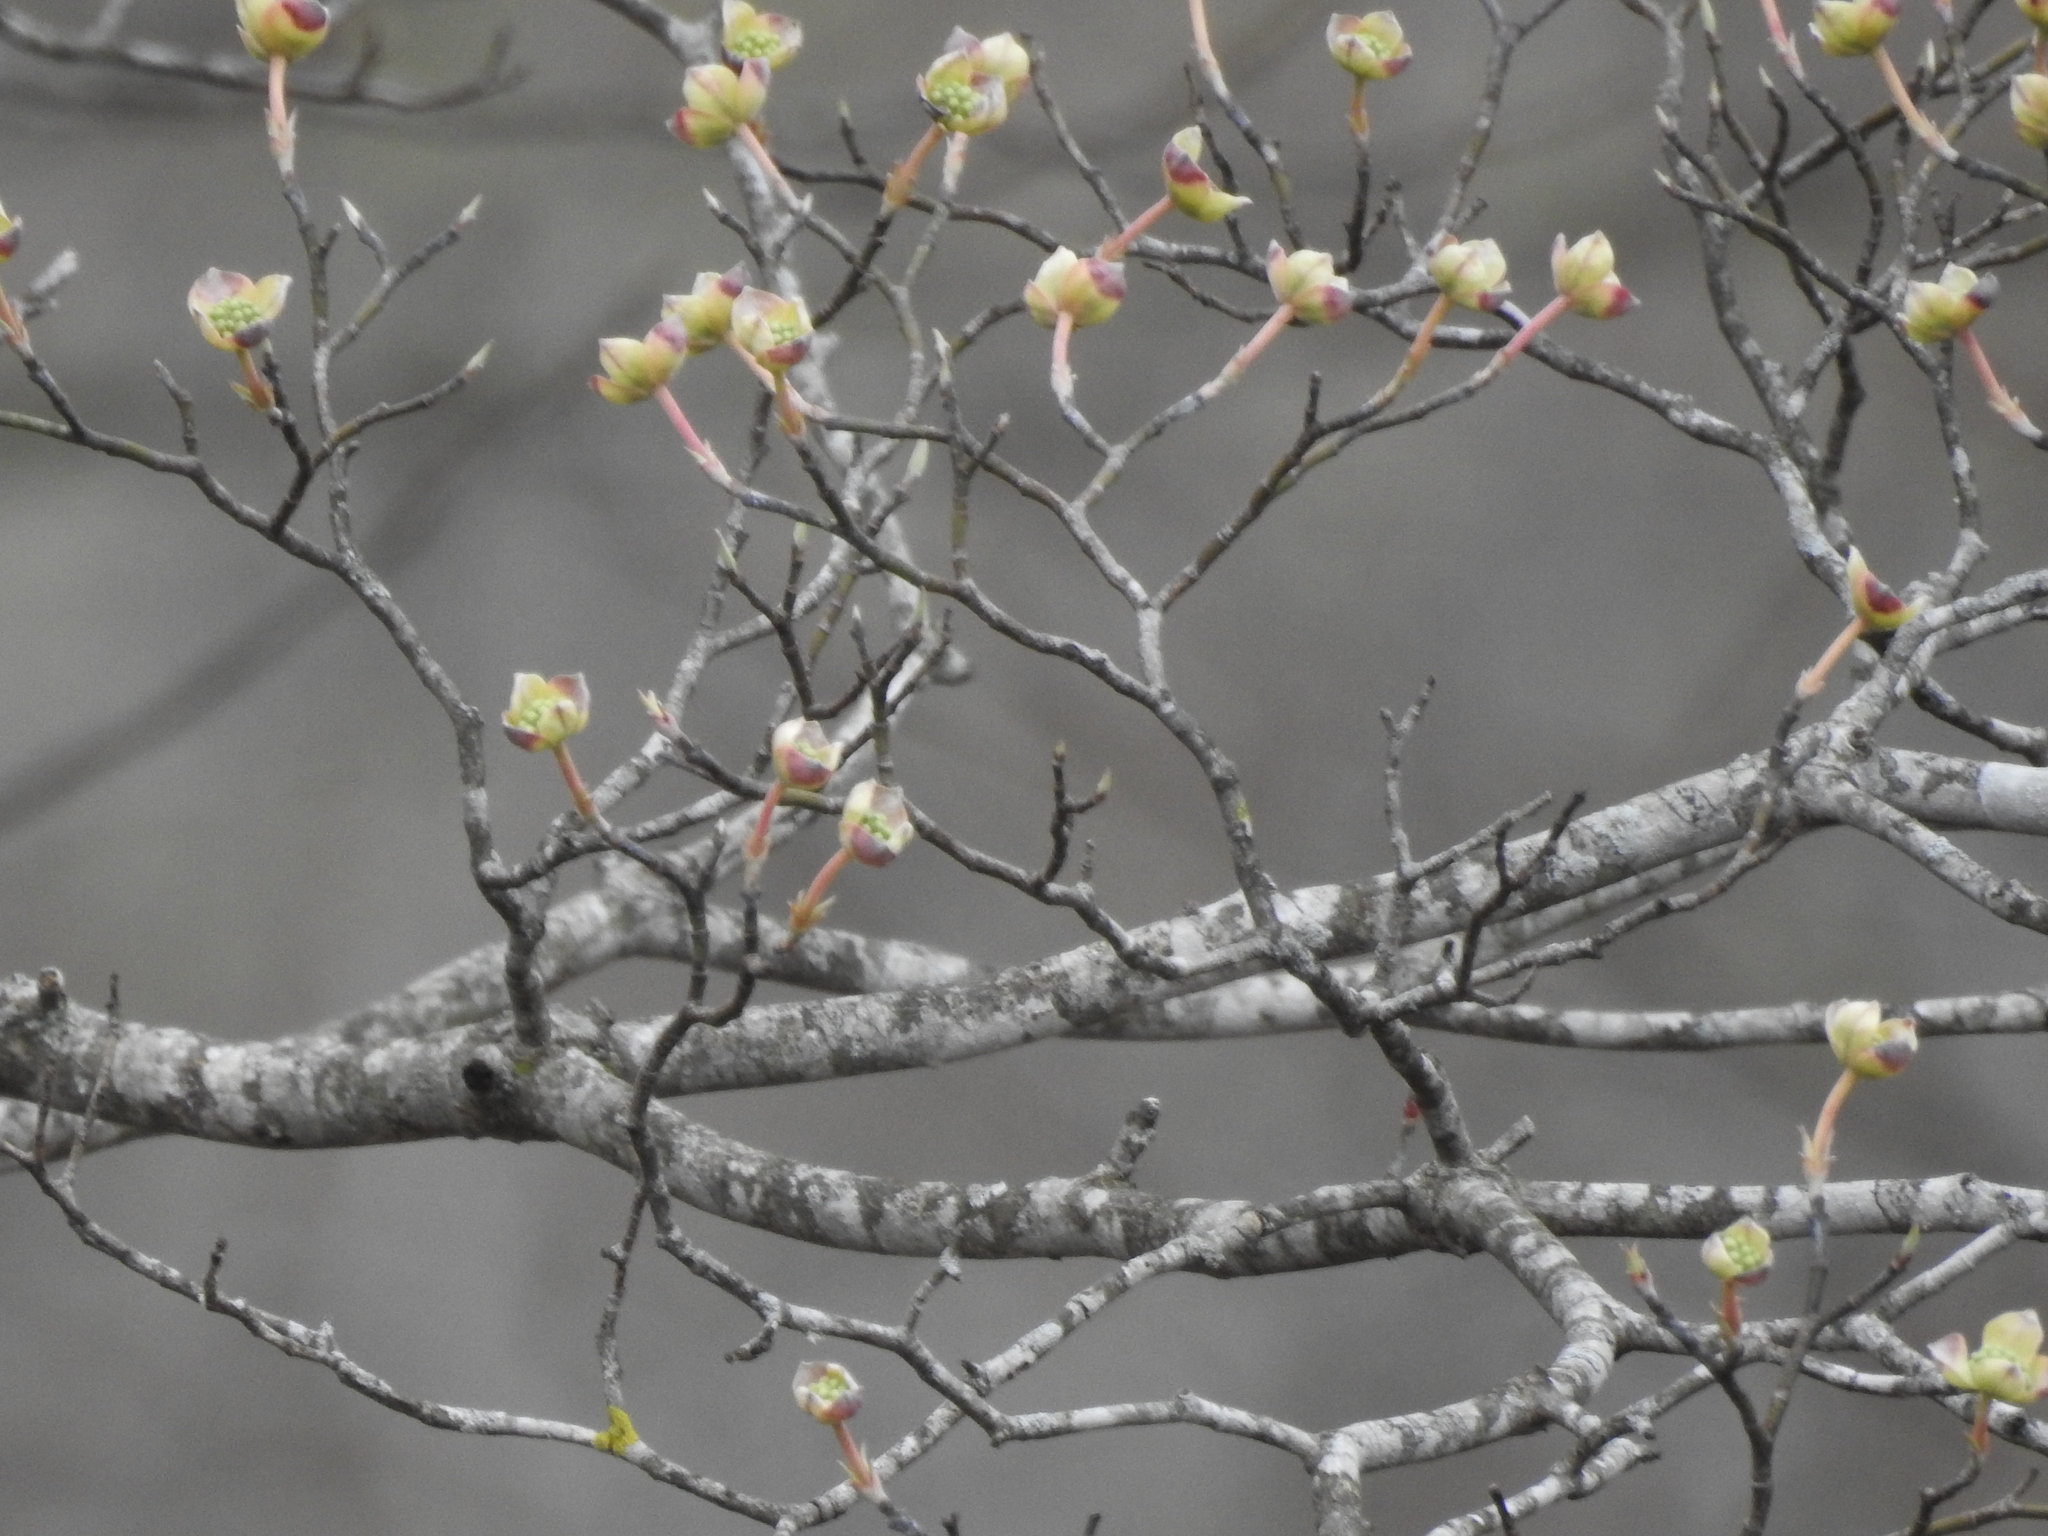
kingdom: Plantae
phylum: Tracheophyta
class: Magnoliopsida
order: Cornales
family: Cornaceae
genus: Cornus
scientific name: Cornus florida
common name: Flowering dogwood
